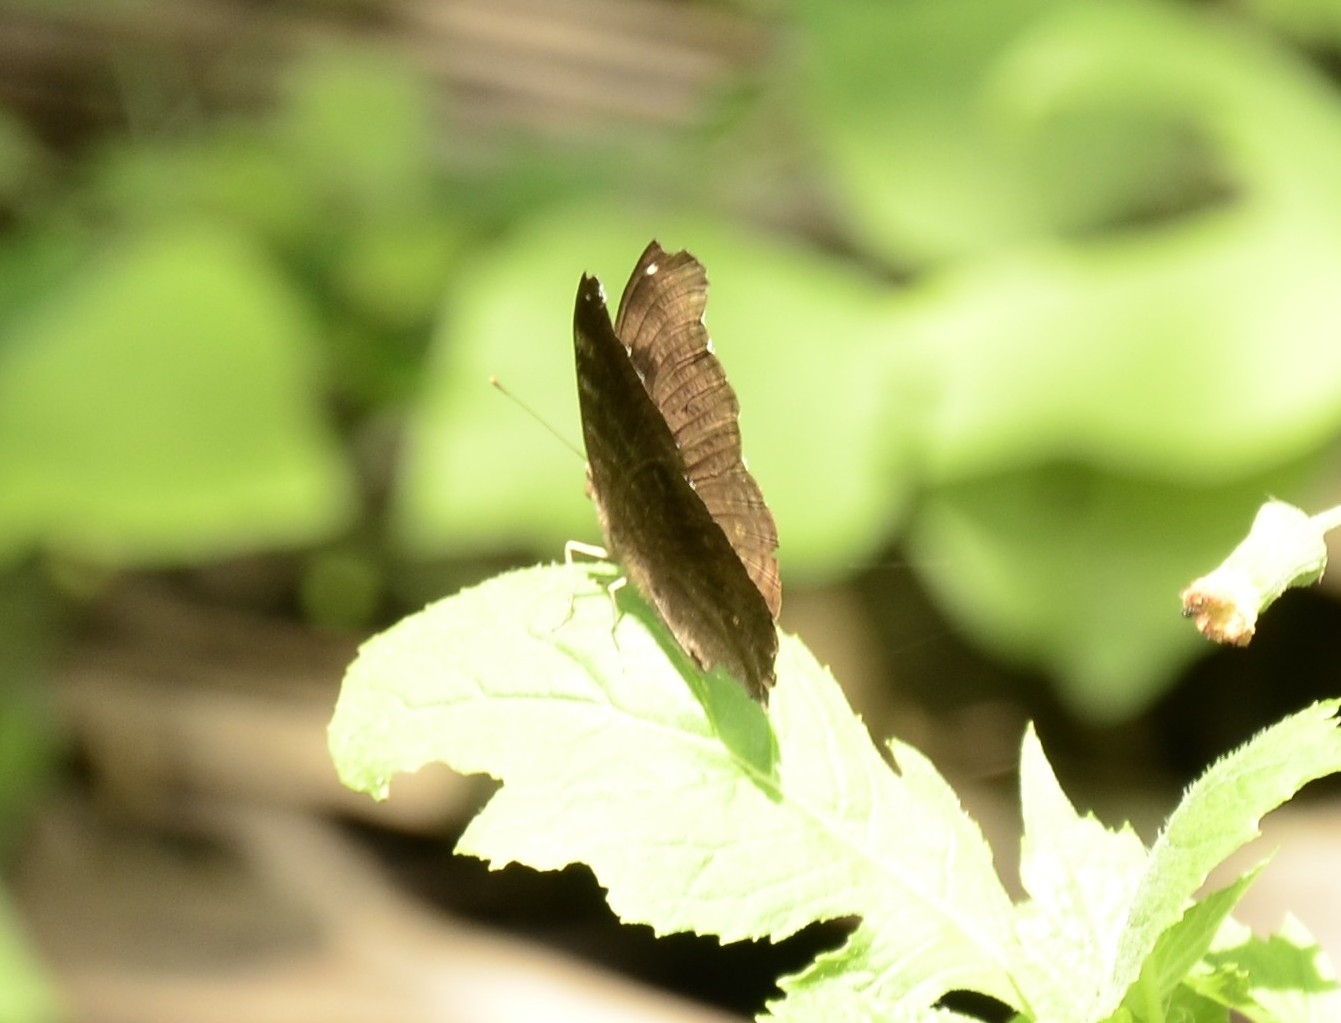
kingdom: Animalia
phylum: Arthropoda
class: Insecta
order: Lepidoptera
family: Nymphalidae
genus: Junonia
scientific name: Junonia iphita
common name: Chocolate pansy
